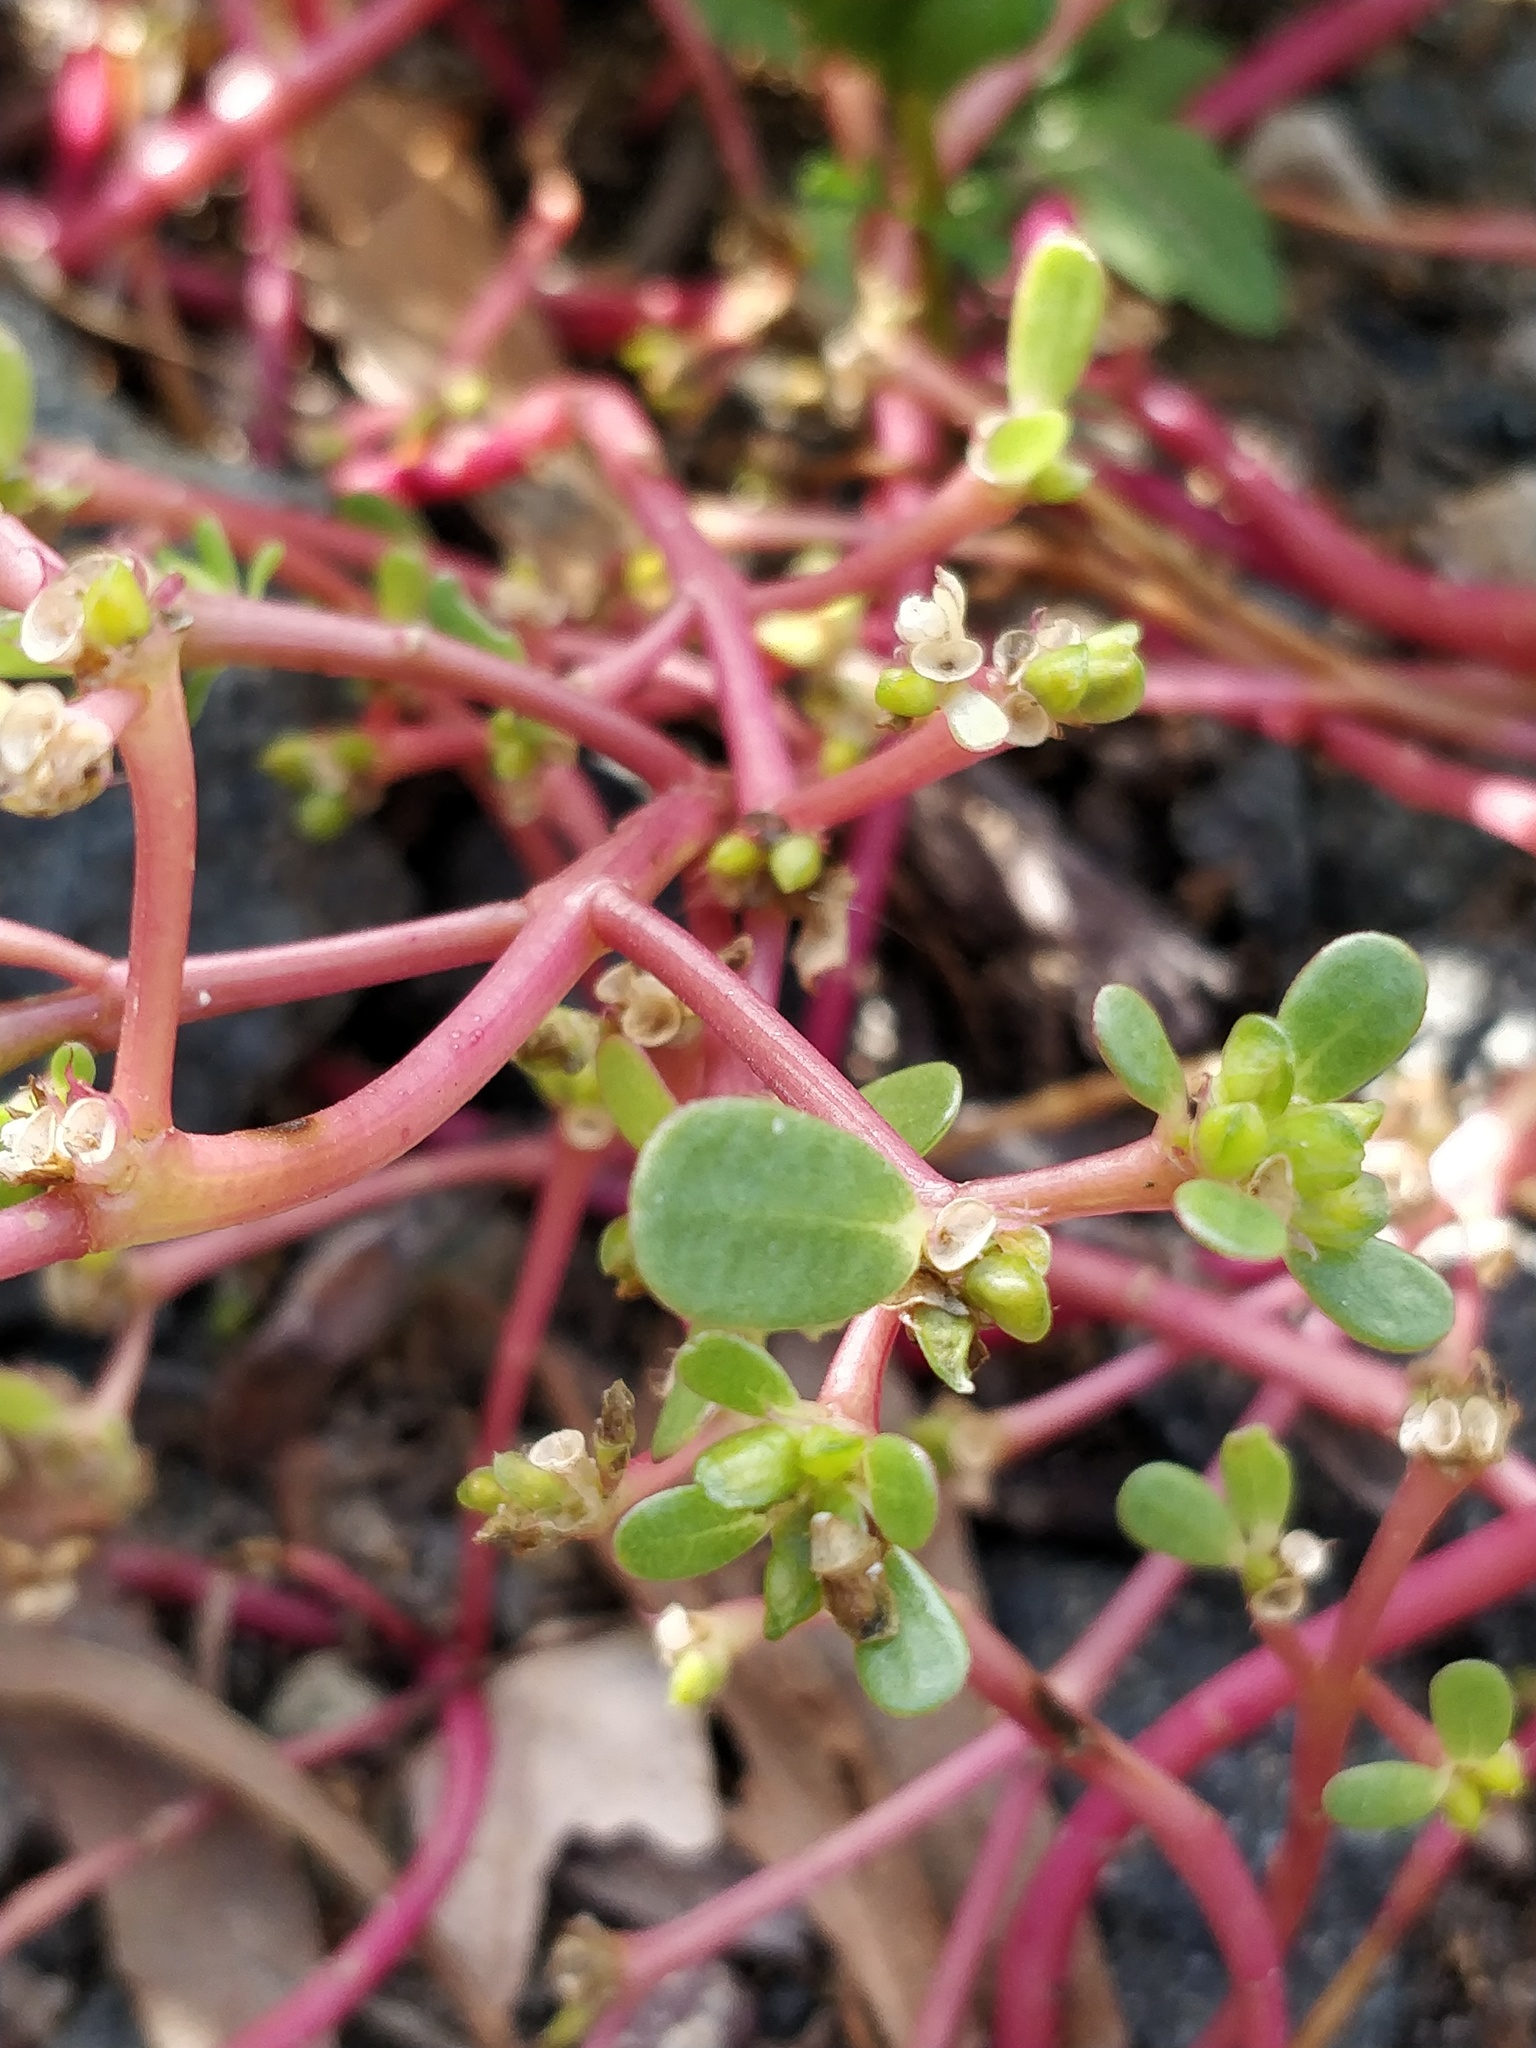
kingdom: Plantae
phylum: Tracheophyta
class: Magnoliopsida
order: Caryophyllales
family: Portulacaceae
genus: Portulaca
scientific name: Portulaca oleracea
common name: Common purslane
